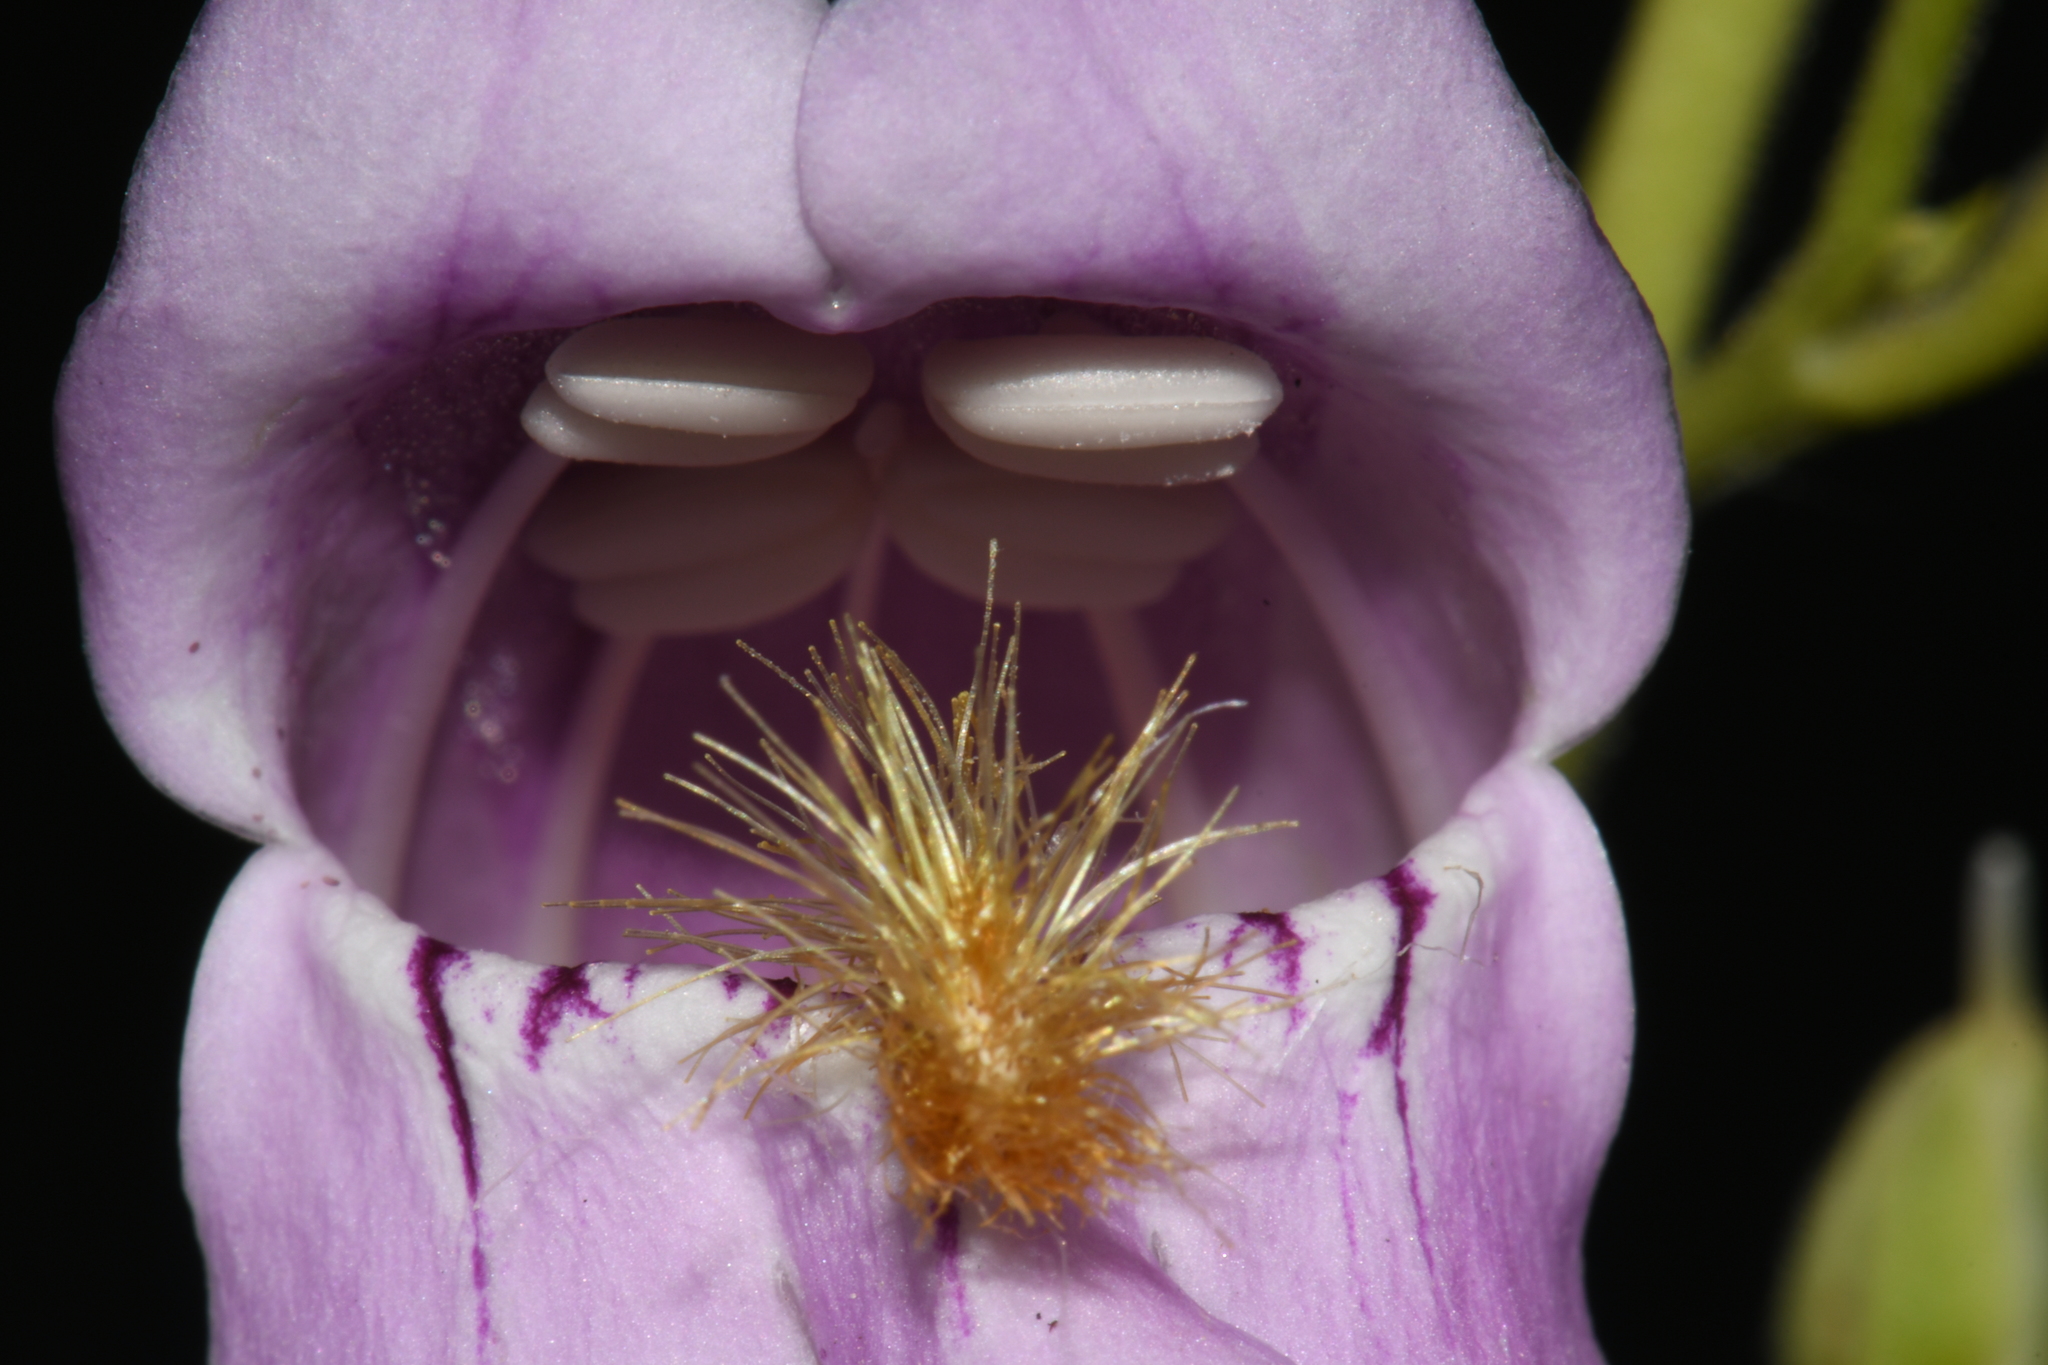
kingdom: Plantae
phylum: Tracheophyta
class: Magnoliopsida
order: Lamiales
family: Plantaginaceae
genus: Penstemon
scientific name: Penstemon palmeri
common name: Palmer penstemon
